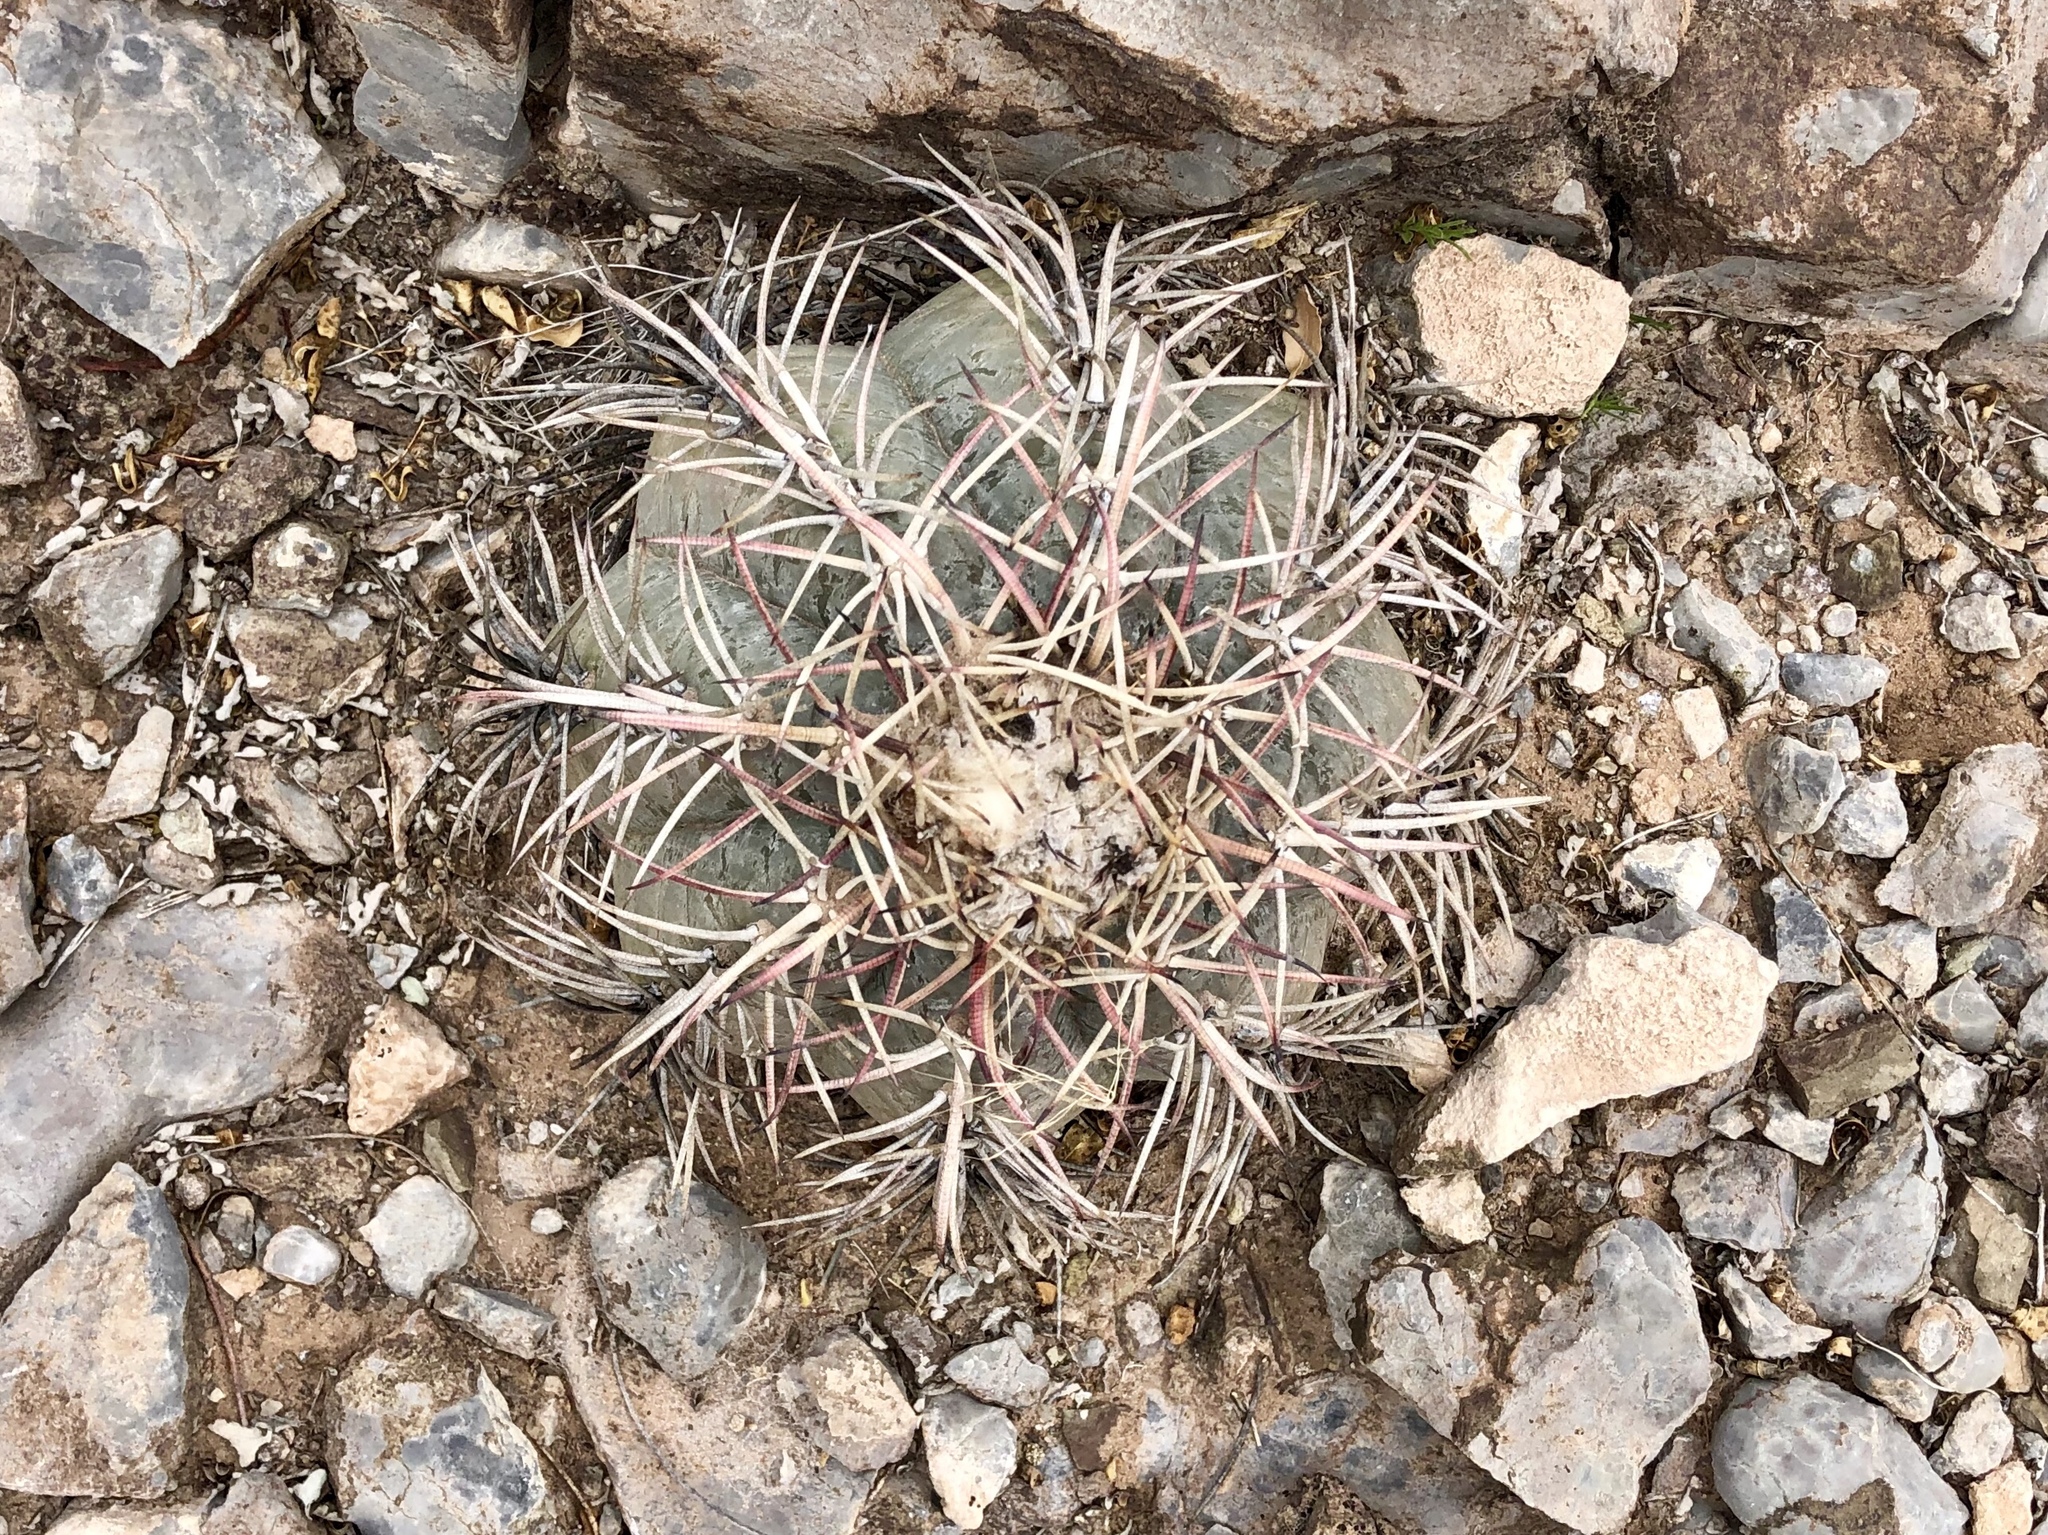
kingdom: Plantae
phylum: Tracheophyta
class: Magnoliopsida
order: Caryophyllales
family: Cactaceae
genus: Echinocactus
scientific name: Echinocactus horizonthalonius
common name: Devilshead
